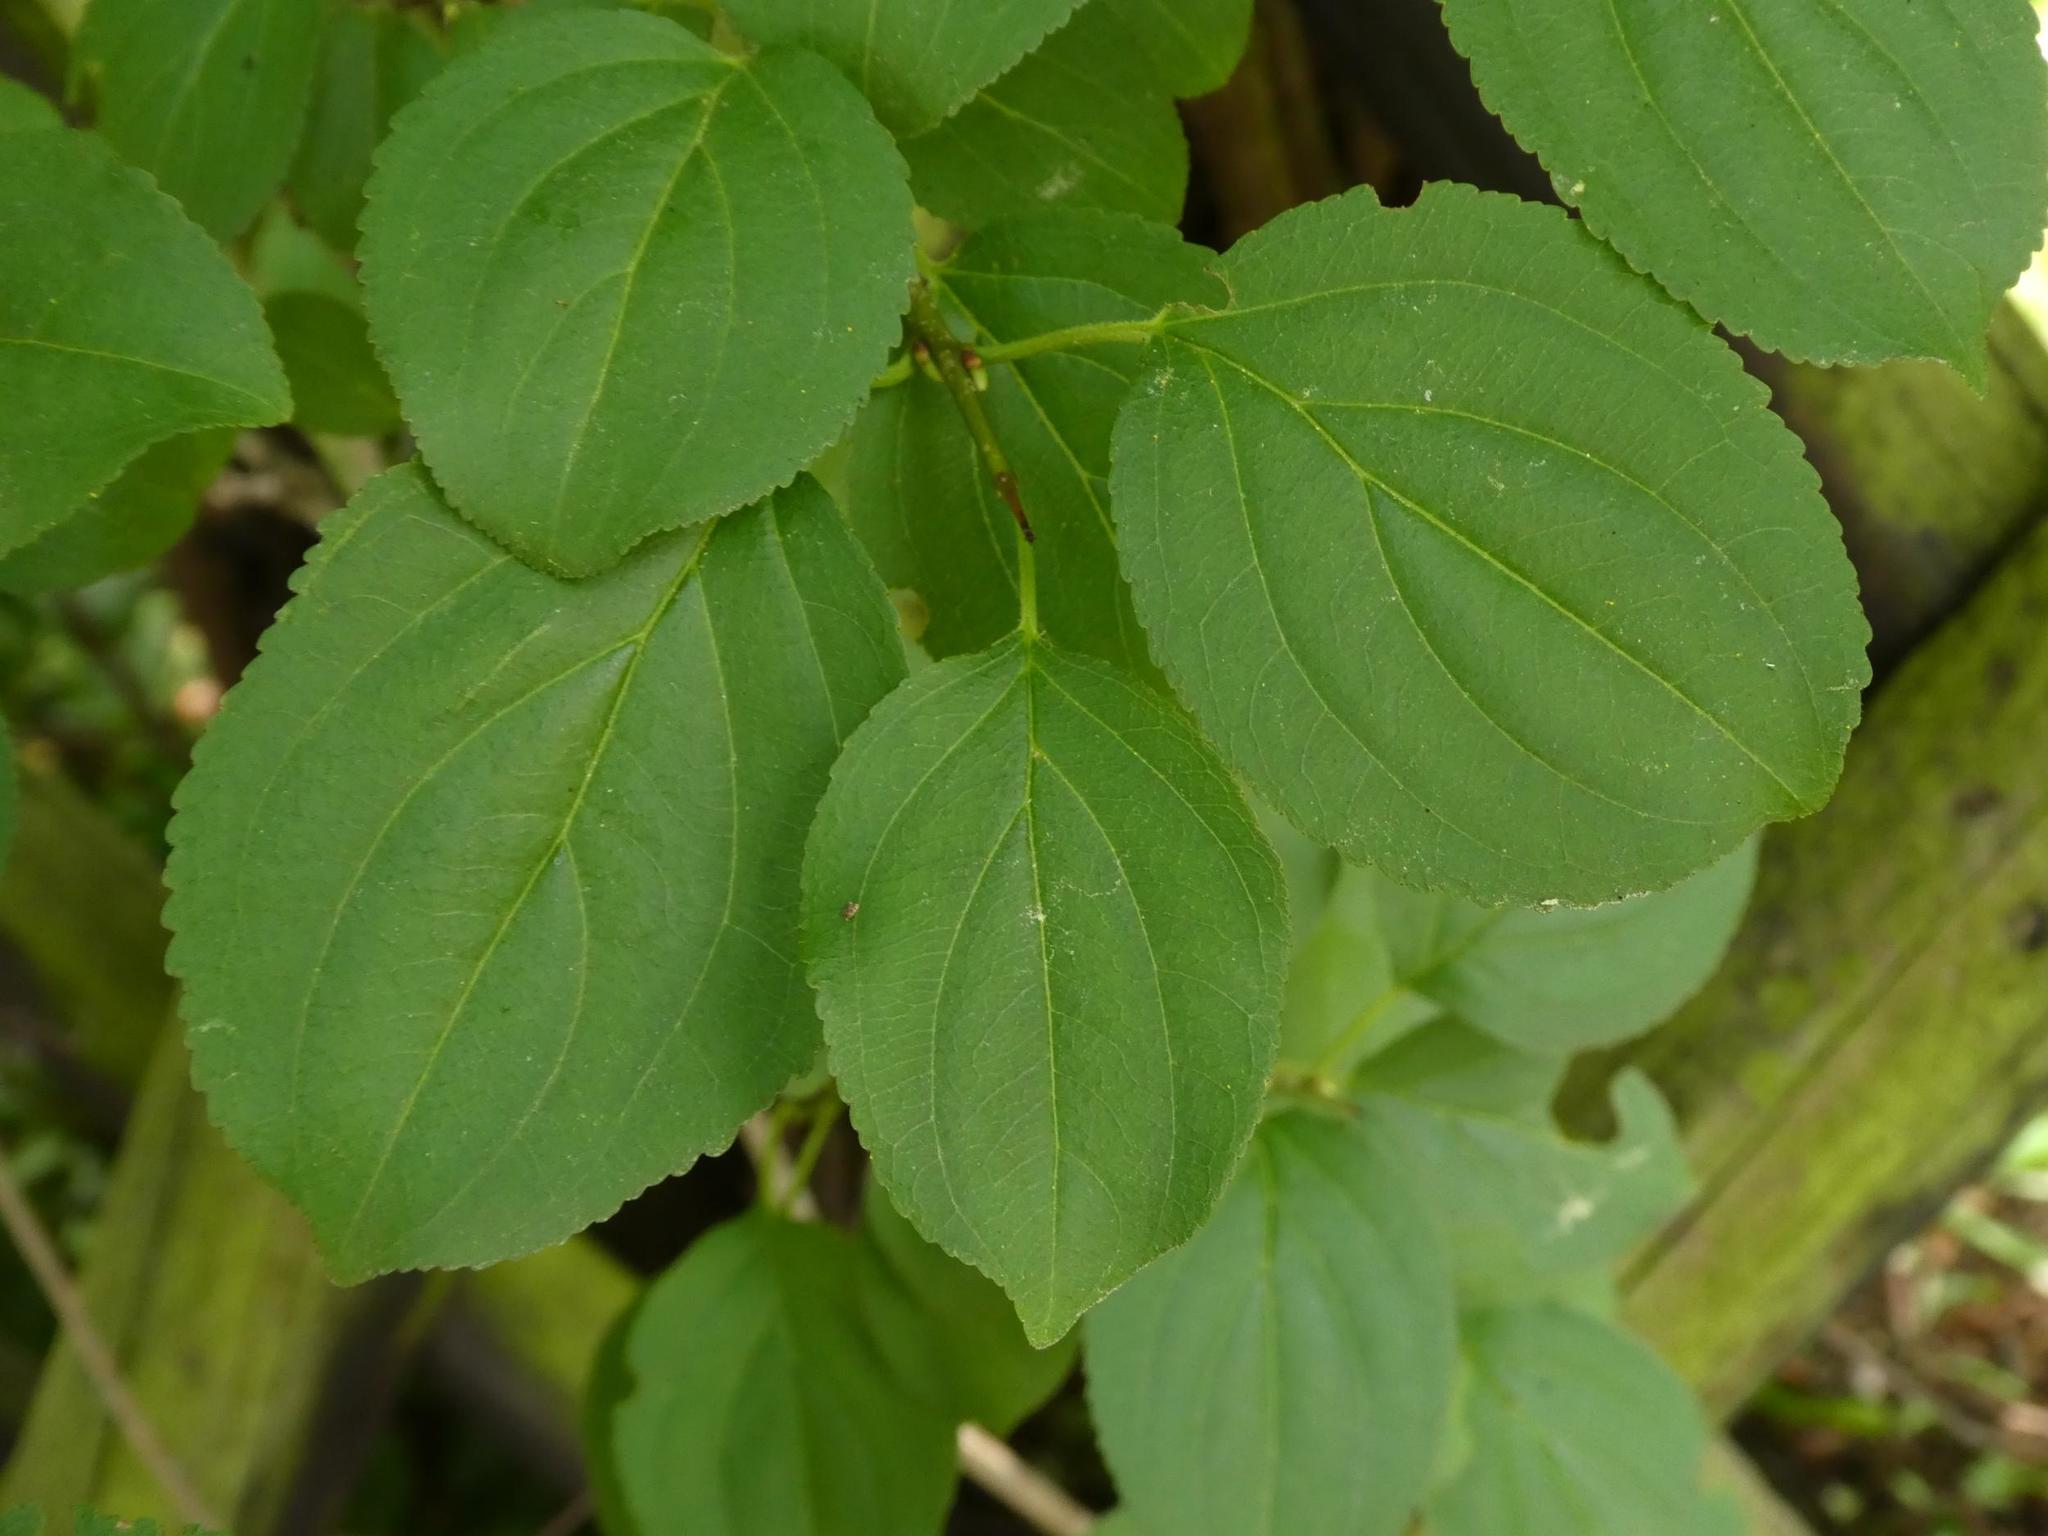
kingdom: Plantae
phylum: Tracheophyta
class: Magnoliopsida
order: Rosales
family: Rhamnaceae
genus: Rhamnus
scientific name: Rhamnus cathartica
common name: Common buckthorn
